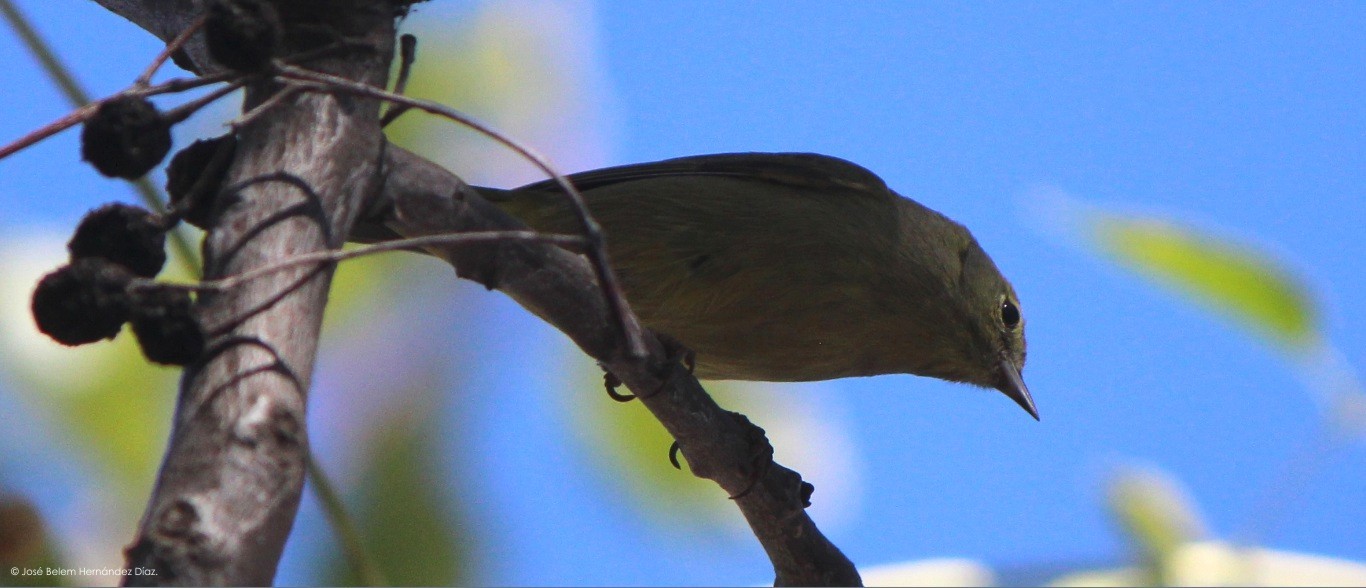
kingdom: Animalia
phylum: Chordata
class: Aves
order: Passeriformes
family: Parulidae
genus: Leiothlypis
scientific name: Leiothlypis celata
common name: Orange-crowned warbler
